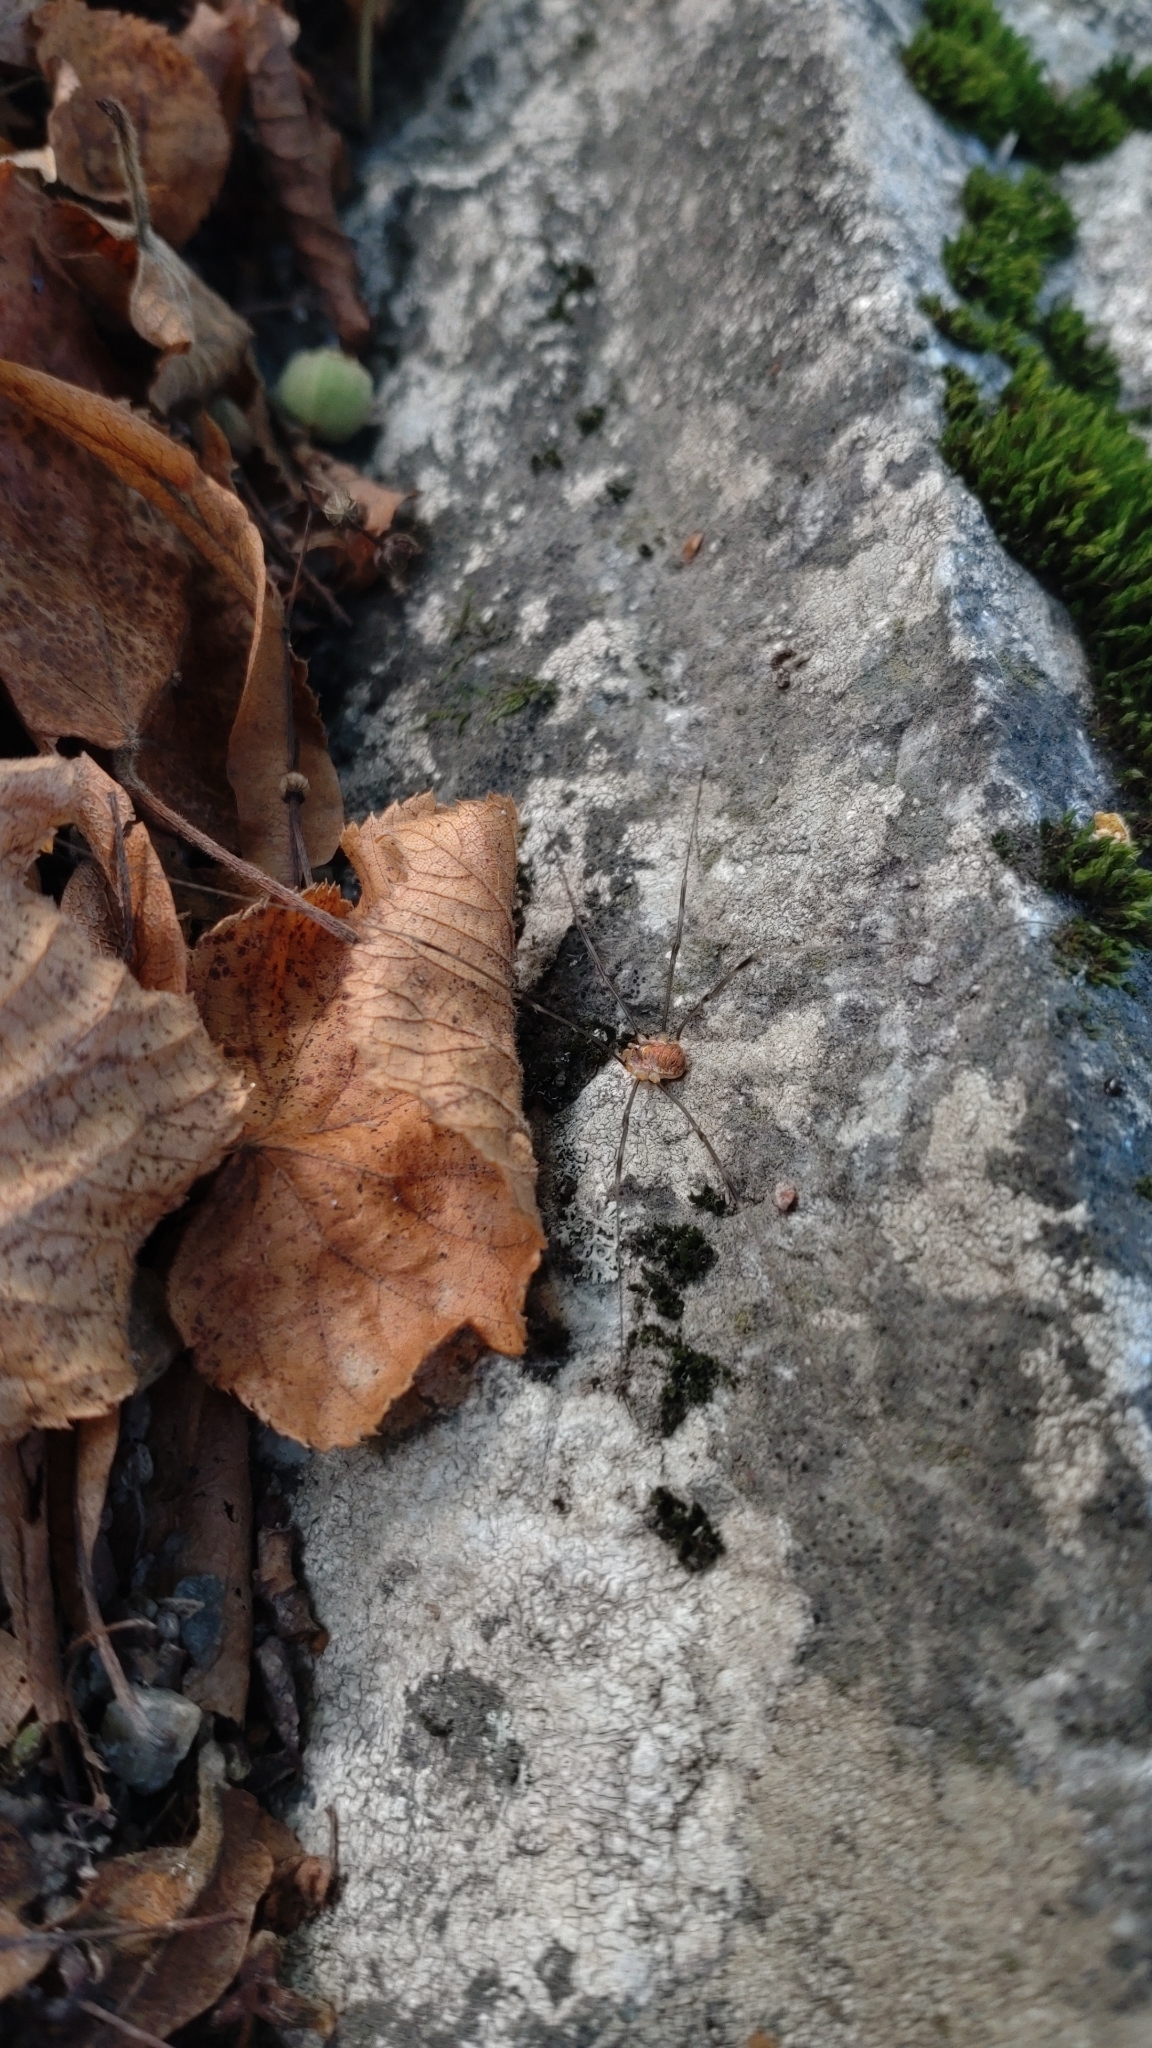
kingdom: Animalia
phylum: Arthropoda
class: Arachnida
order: Opiliones
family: Phalangiidae
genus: Opilio
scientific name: Opilio canestrinii
